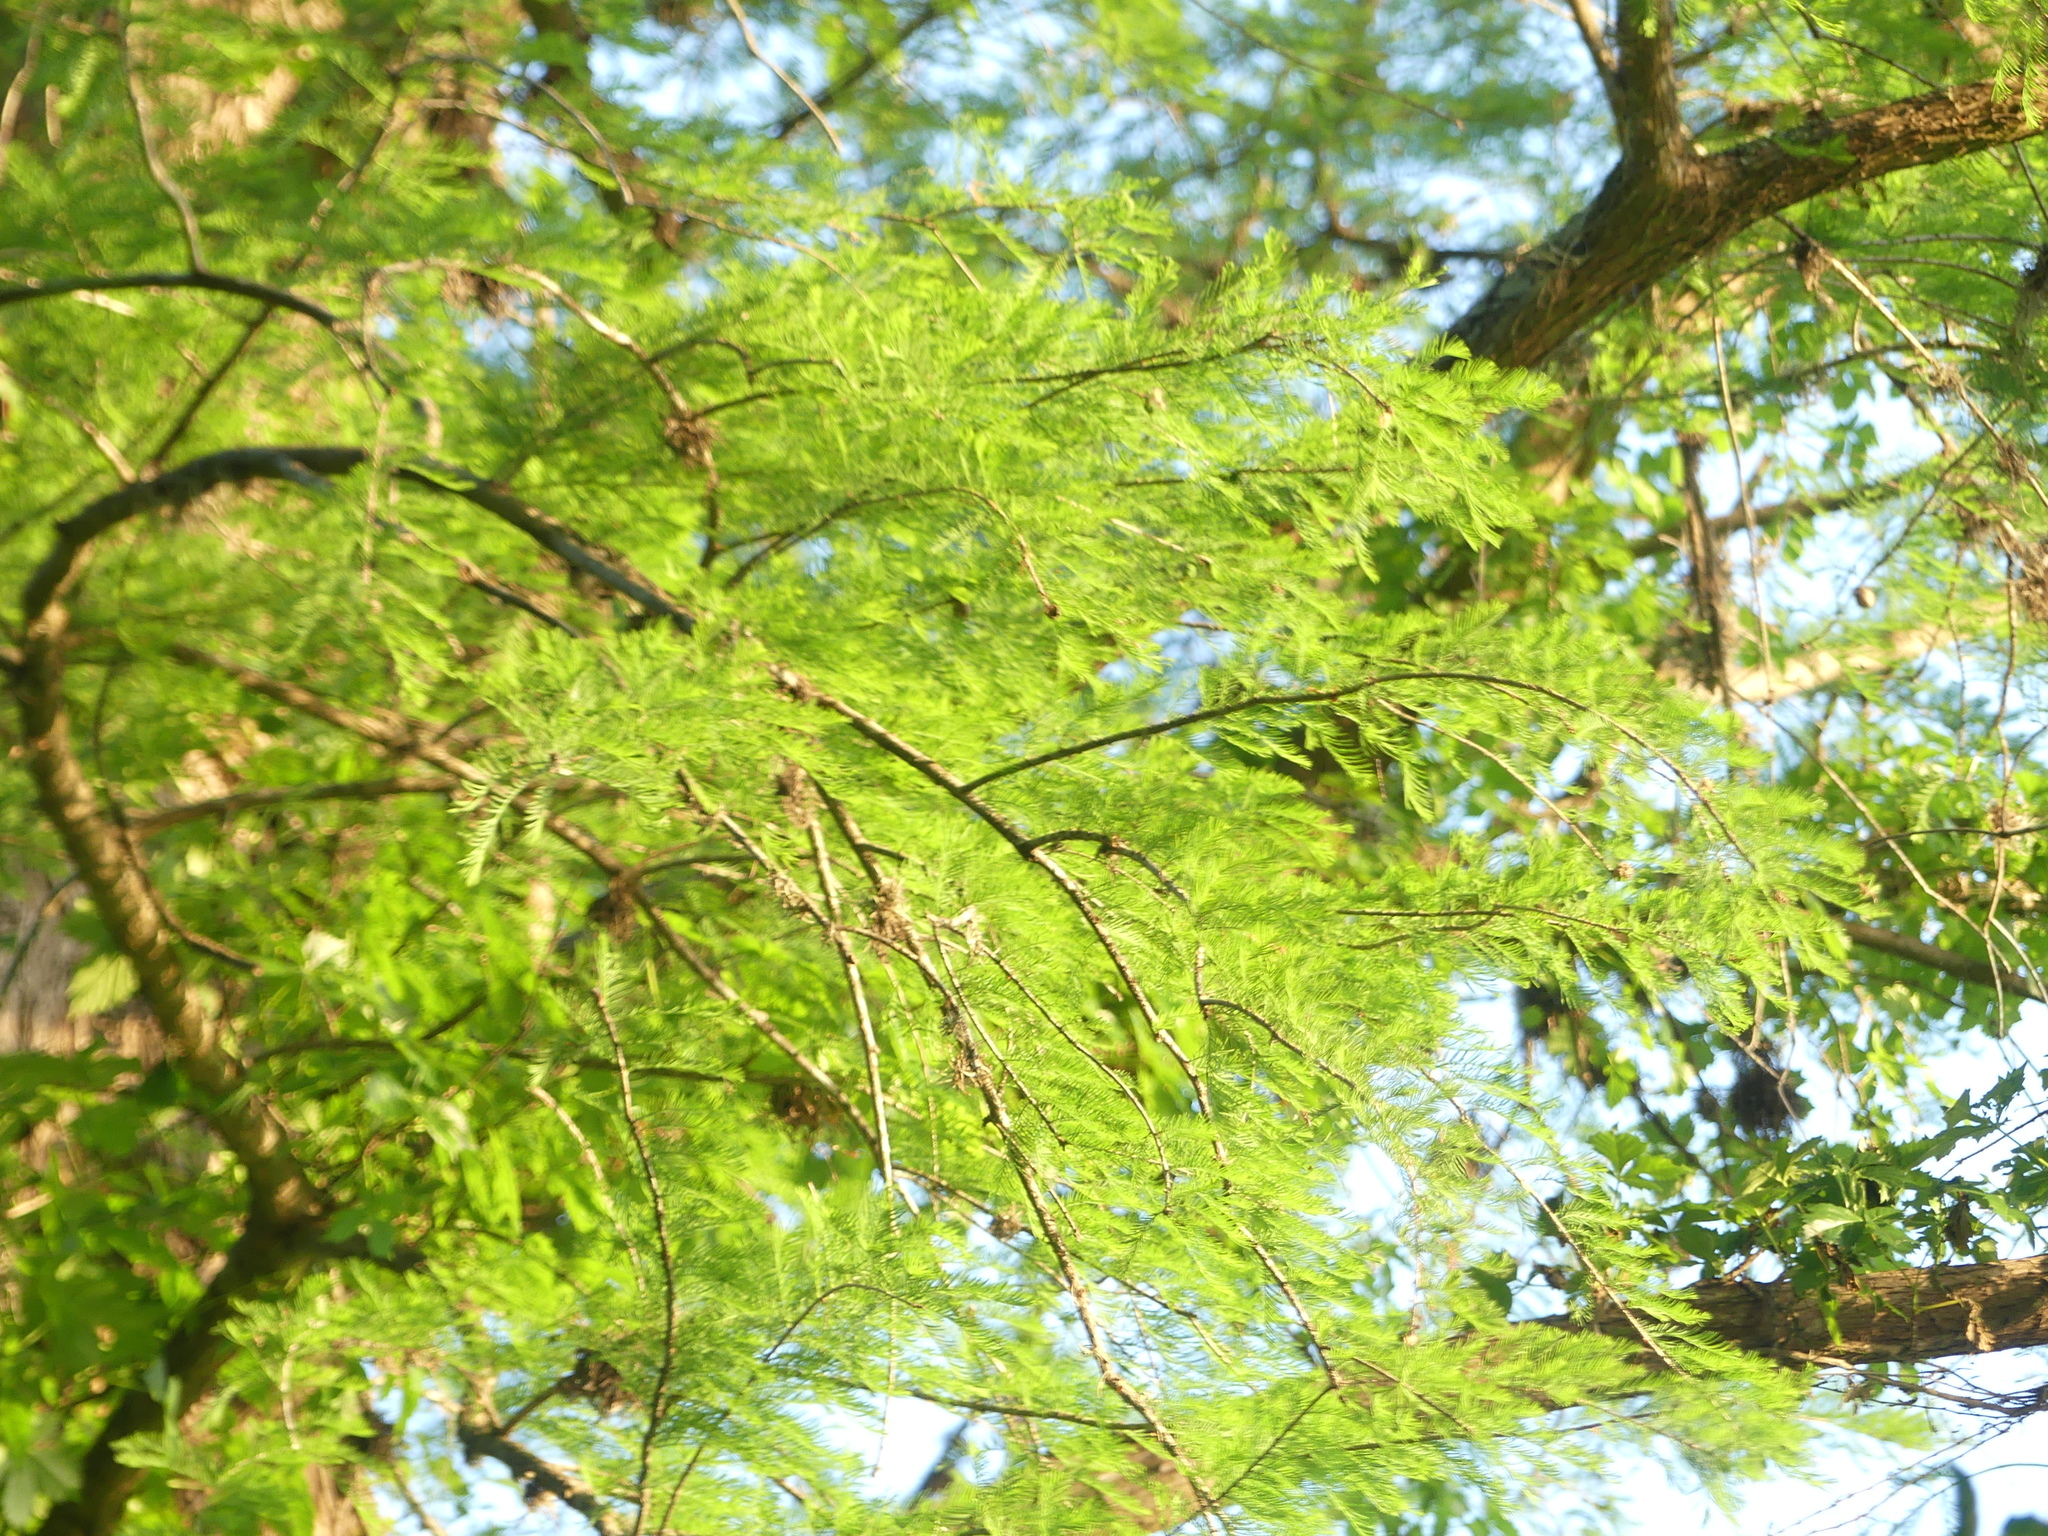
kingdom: Plantae
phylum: Tracheophyta
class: Pinopsida
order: Pinales
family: Cupressaceae
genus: Taxodium
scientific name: Taxodium distichum
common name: Bald cypress
